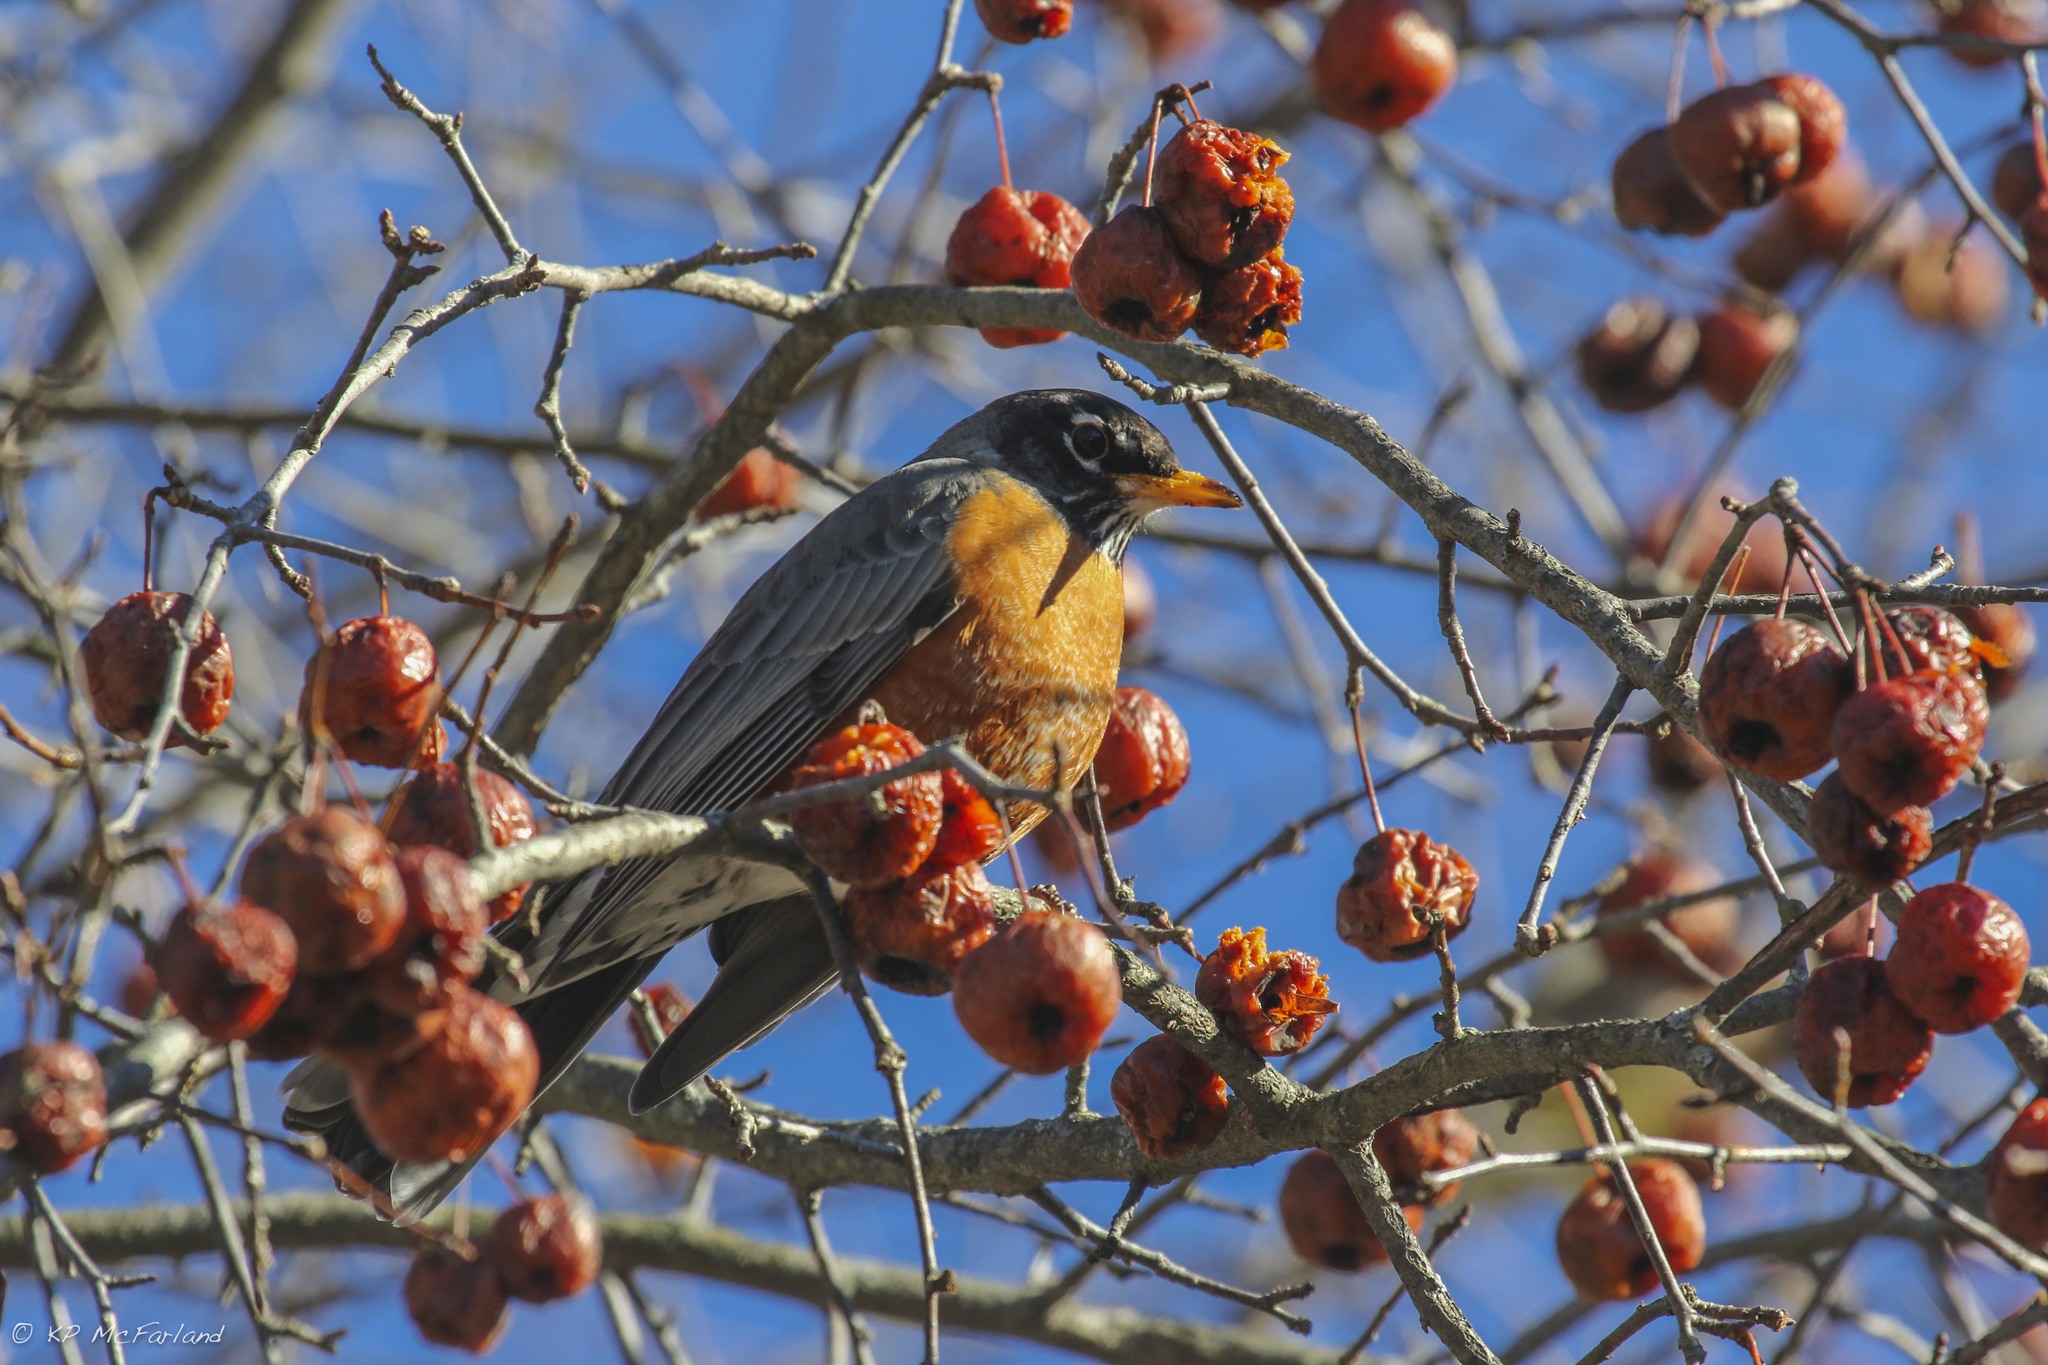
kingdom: Animalia
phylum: Chordata
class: Aves
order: Passeriformes
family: Turdidae
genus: Turdus
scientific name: Turdus migratorius
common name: American robin
